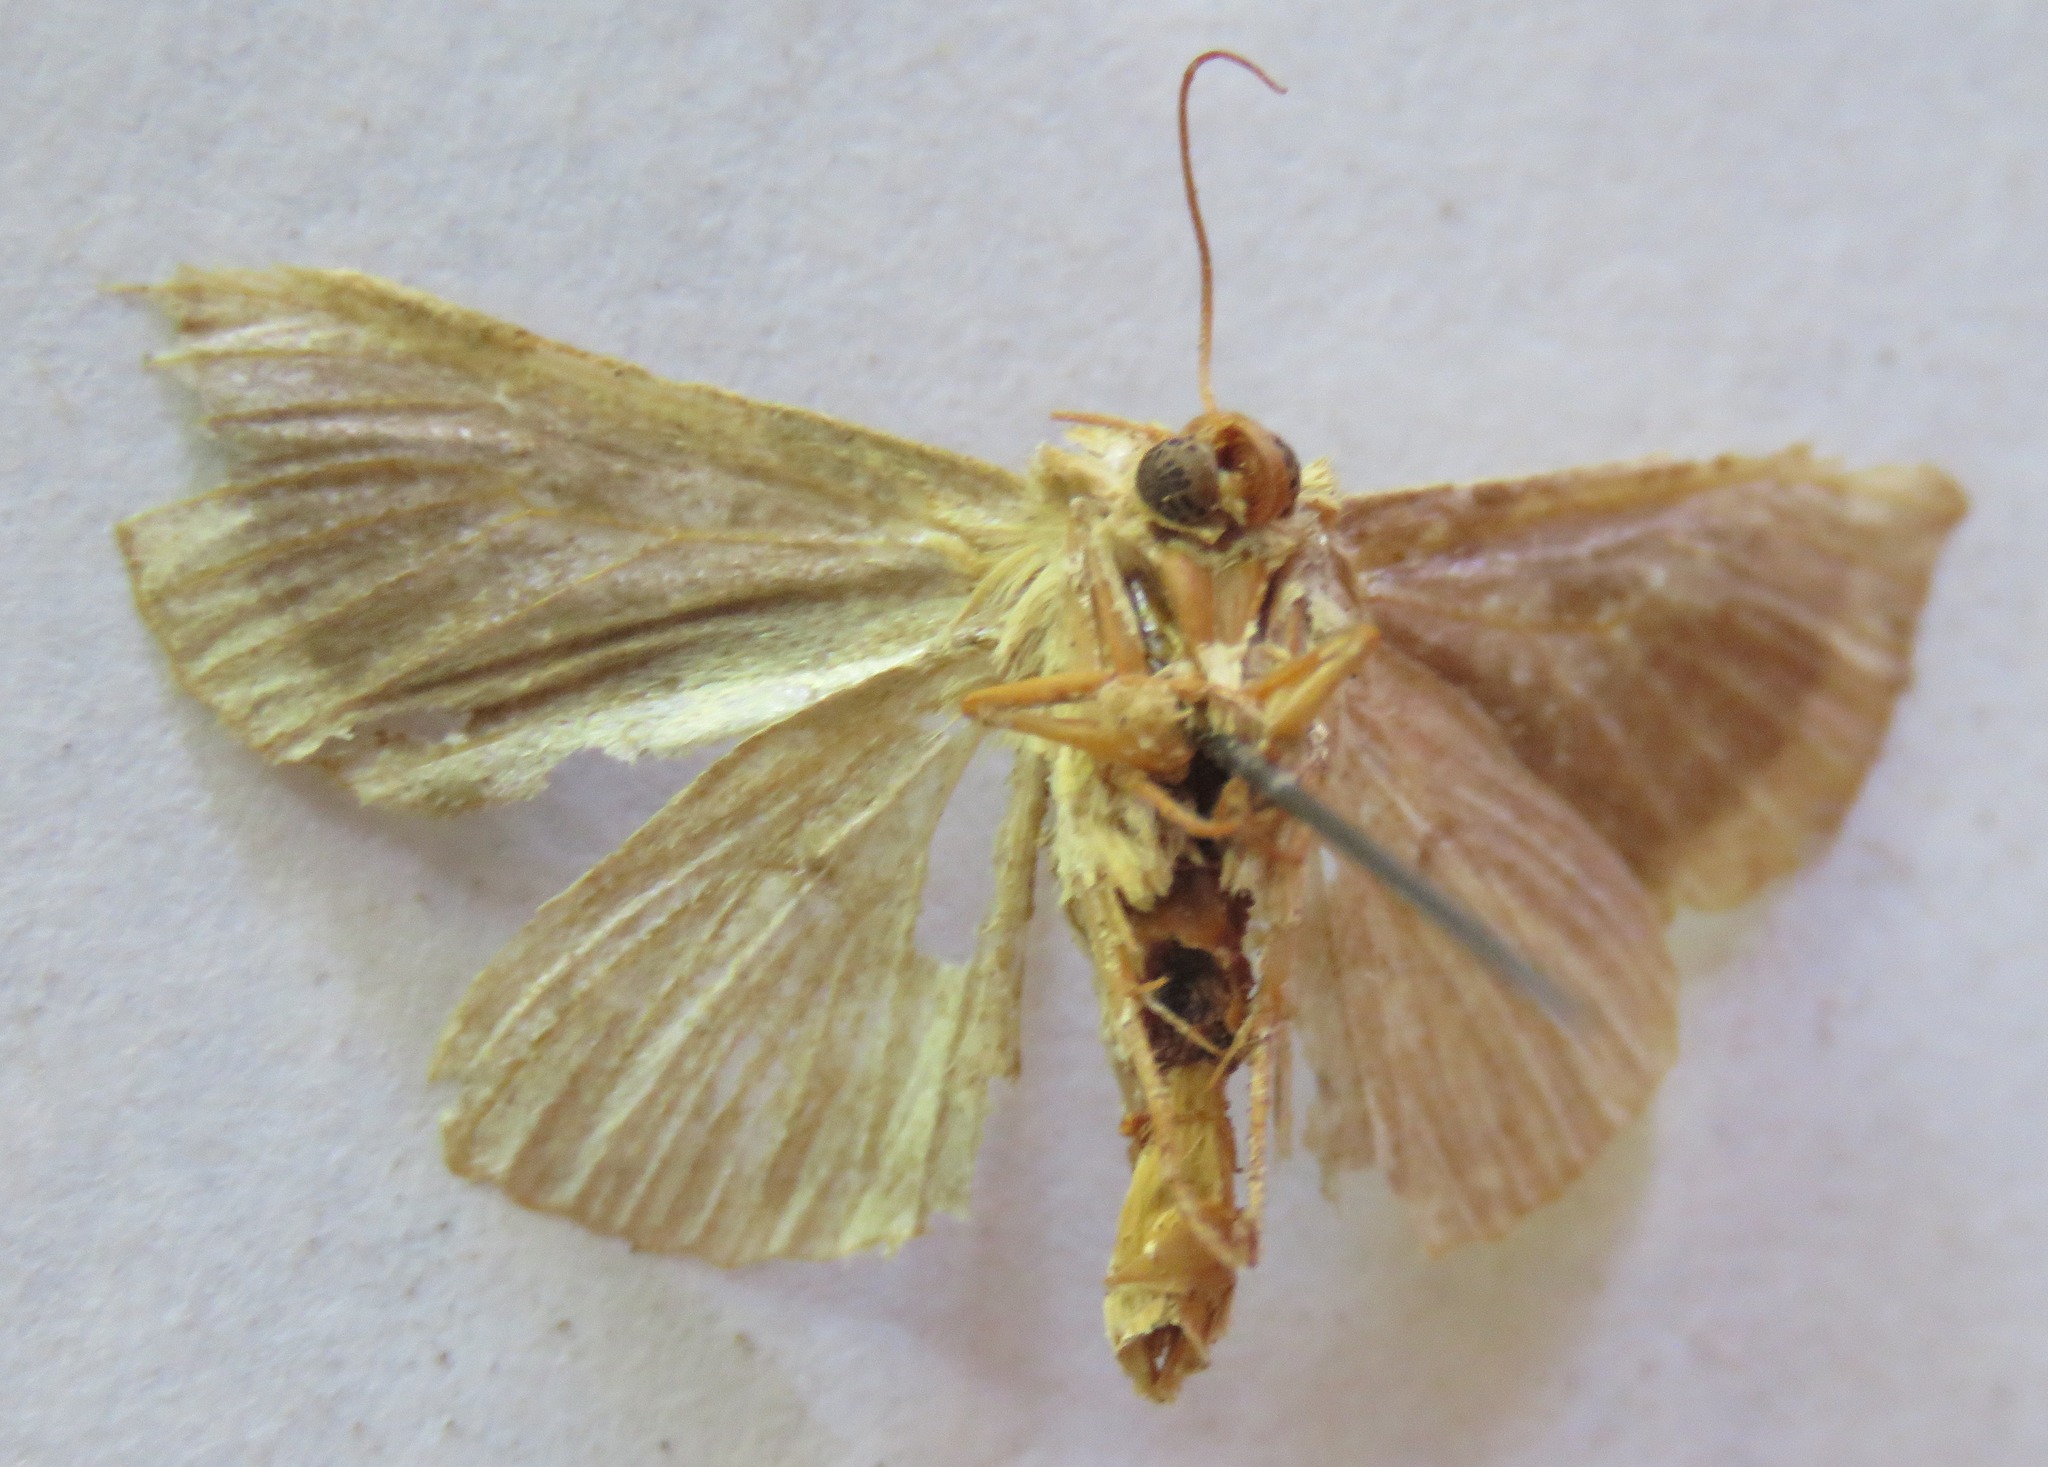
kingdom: Animalia
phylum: Arthropoda
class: Insecta
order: Lepidoptera
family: Noctuidae
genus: Diachrysia
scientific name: Diachrysia chrysitis
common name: Burnished brass
